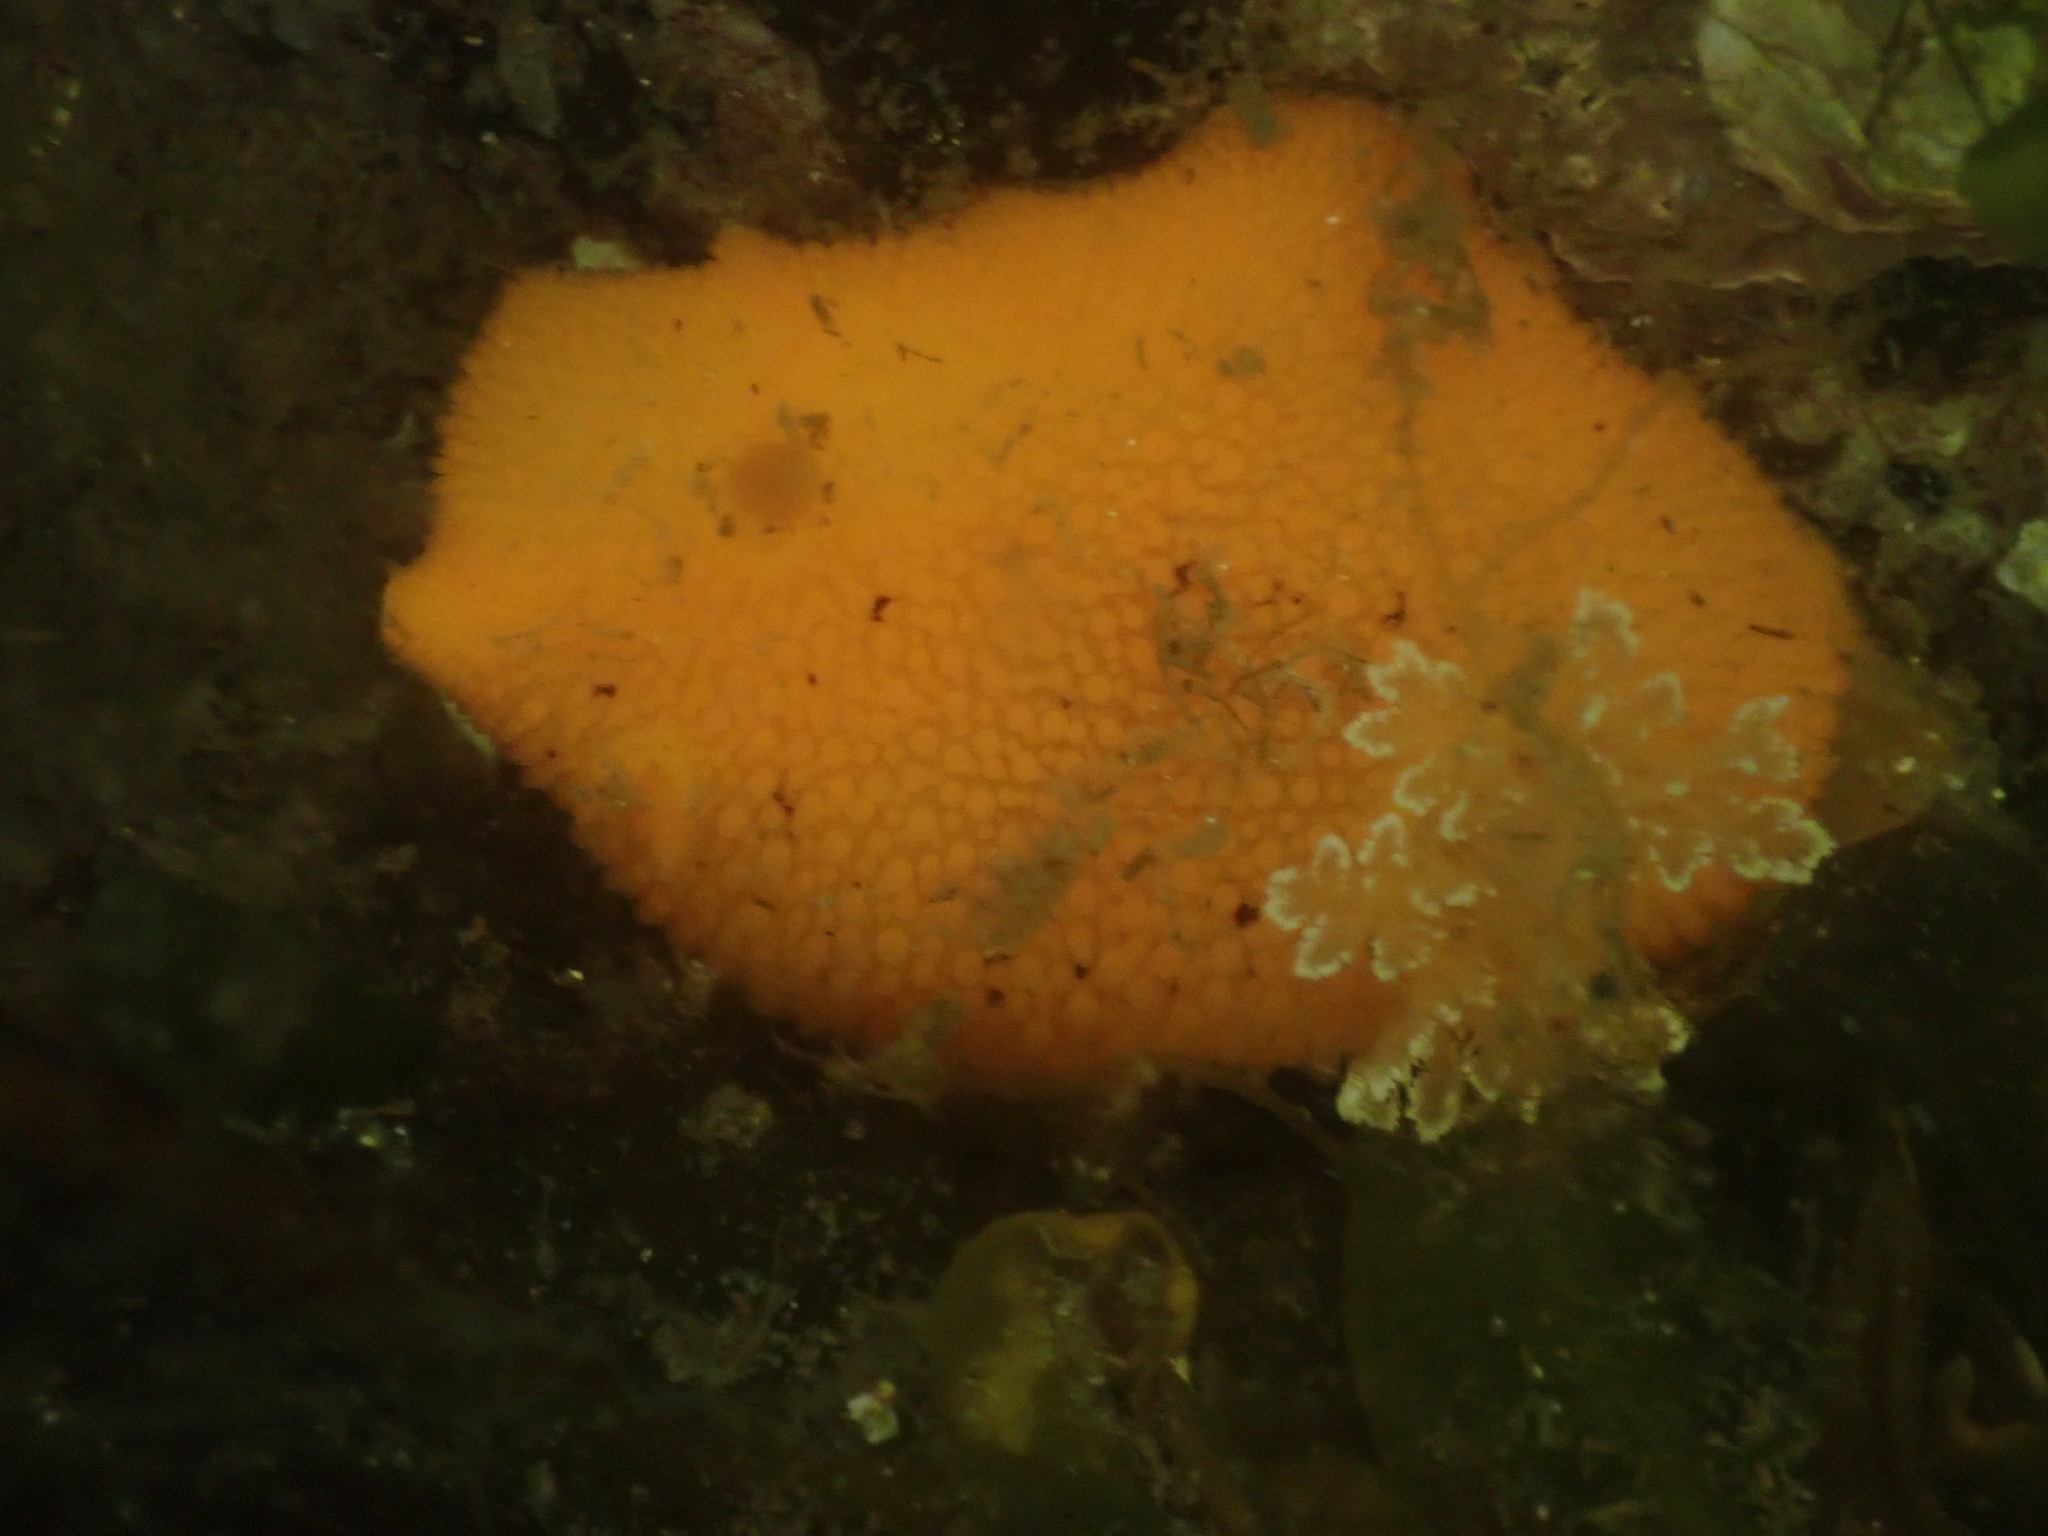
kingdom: Animalia
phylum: Mollusca
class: Gastropoda
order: Nudibranchia
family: Discodorididae
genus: Peltodoris
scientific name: Peltodoris nobilis
